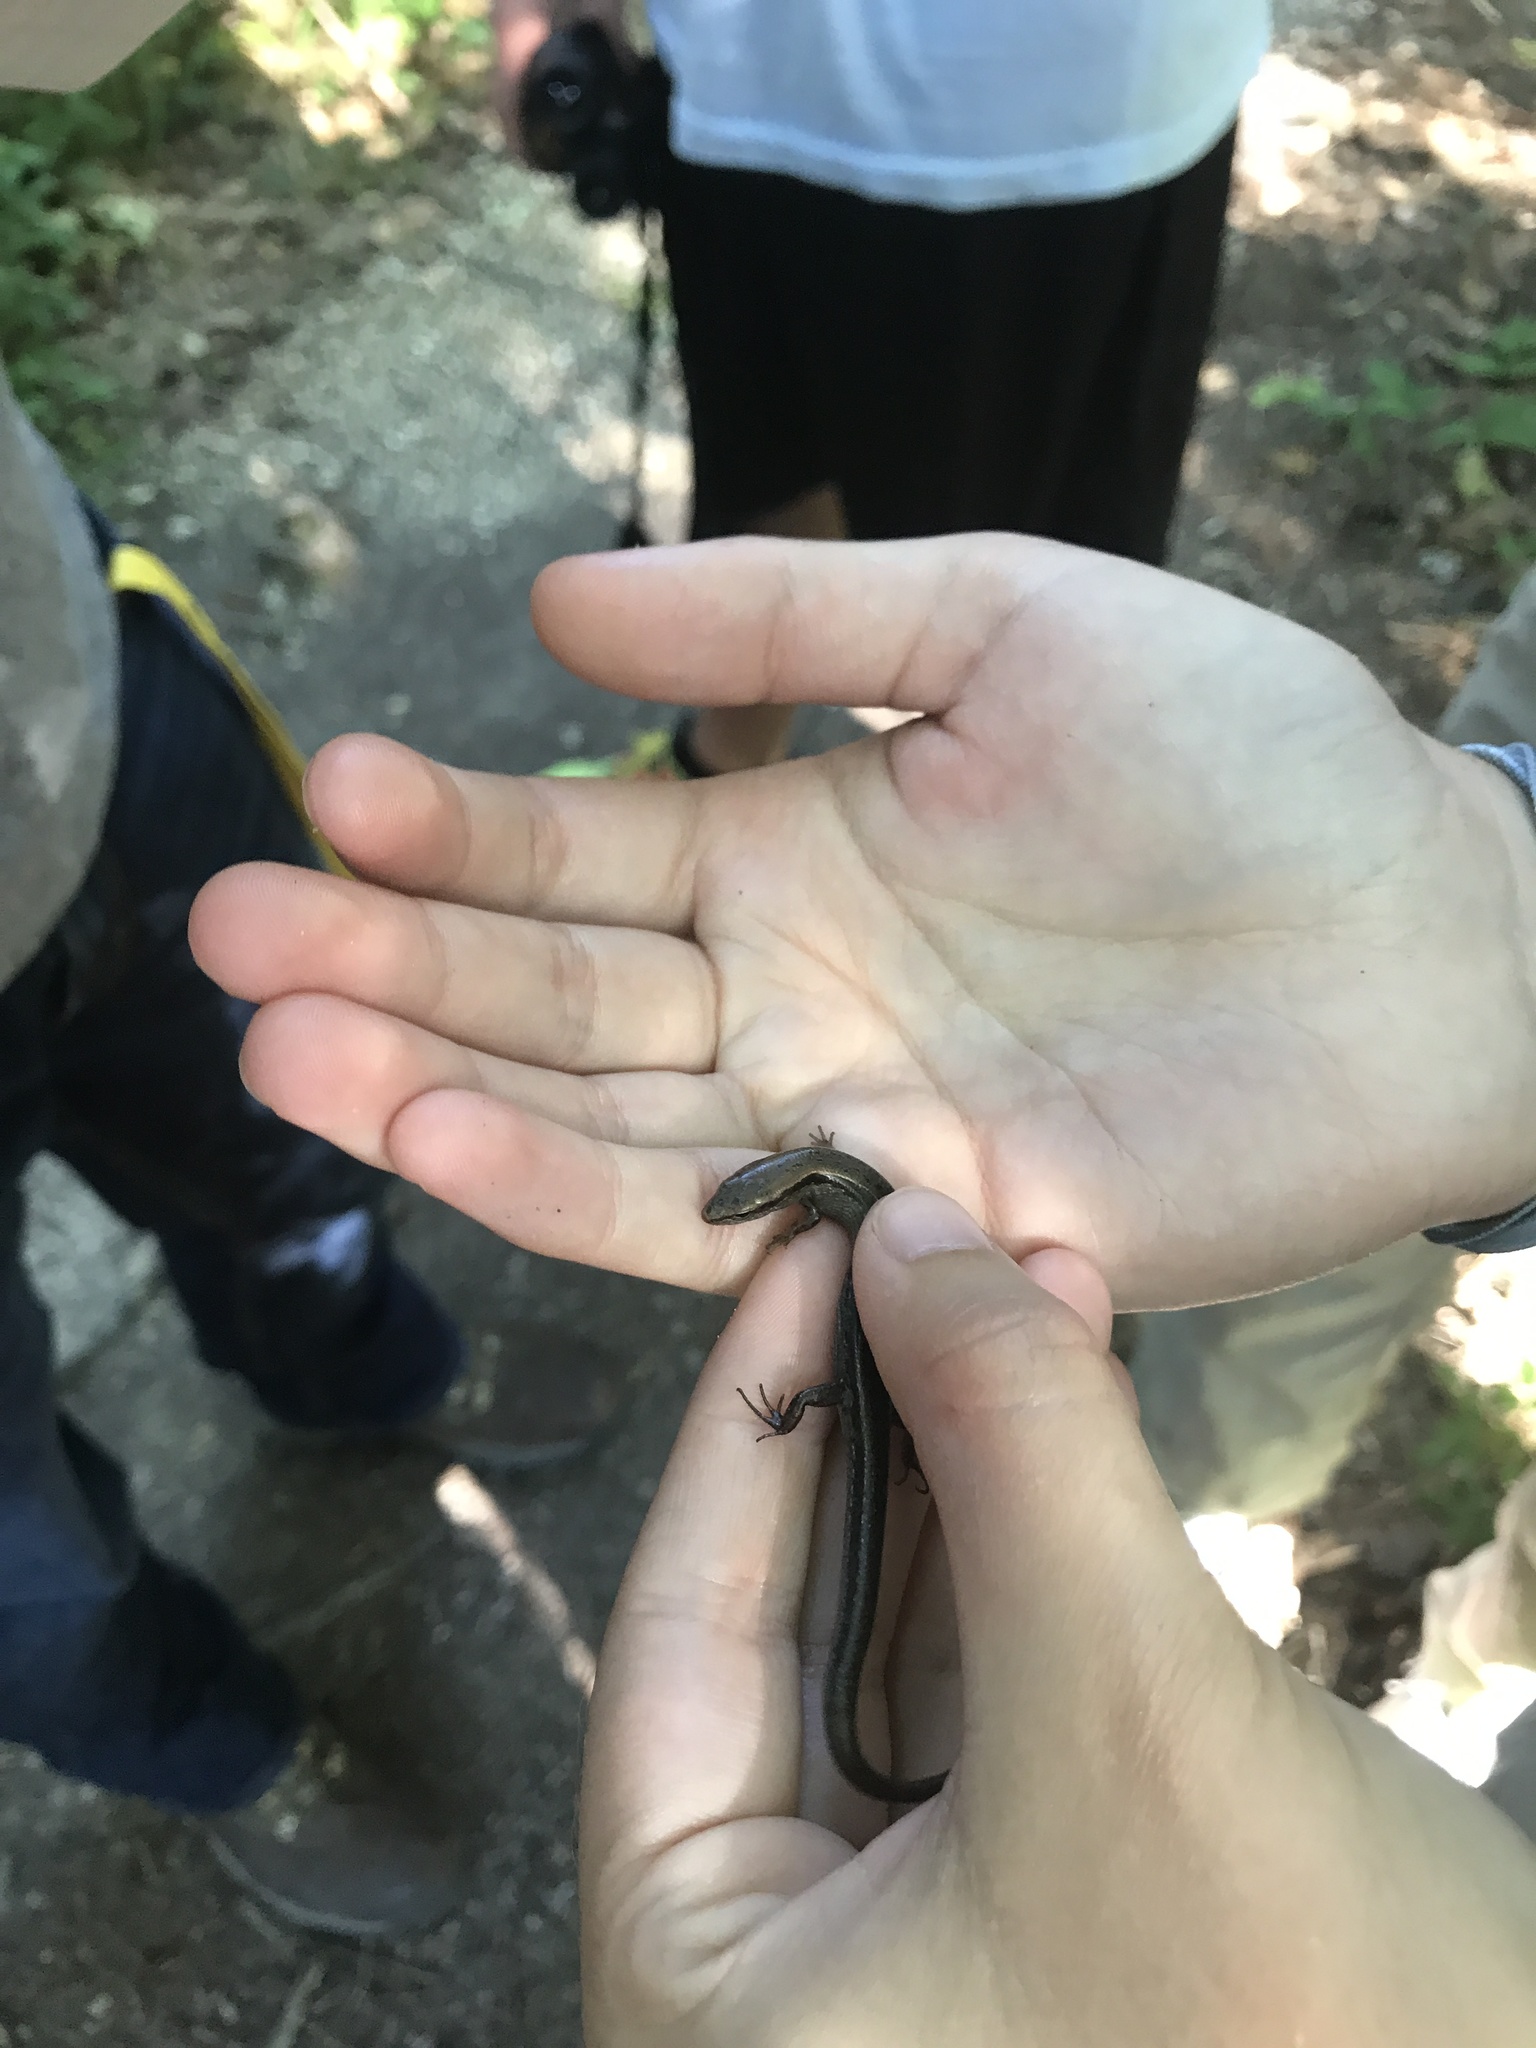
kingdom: Animalia
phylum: Chordata
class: Squamata
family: Scincidae
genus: Scincella
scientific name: Scincella lateralis
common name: Ground skink
